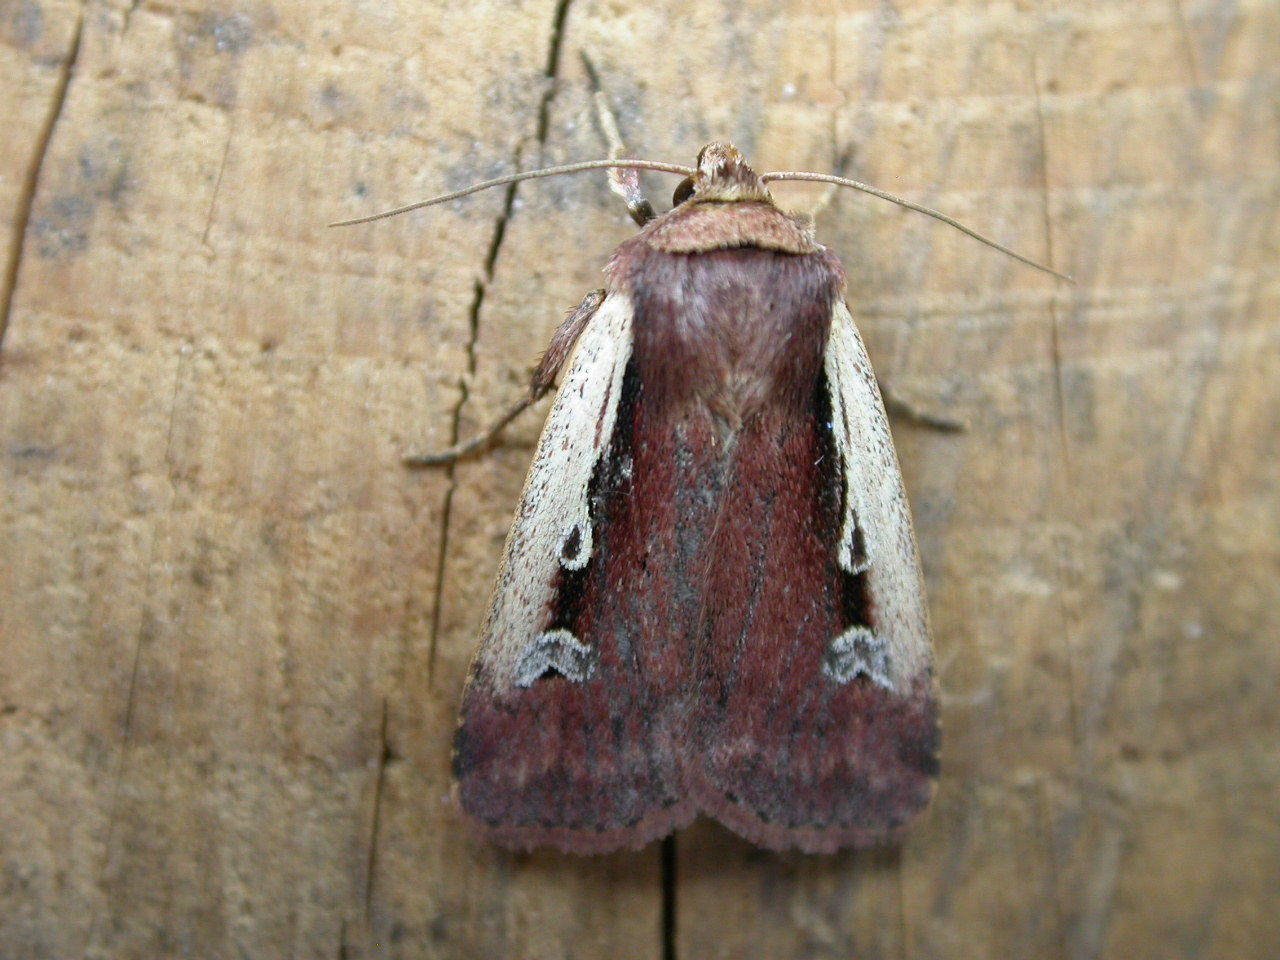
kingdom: Animalia
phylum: Arthropoda
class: Insecta
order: Lepidoptera
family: Noctuidae
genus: Ochropleura
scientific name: Ochropleura plecta
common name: Flame shoulder
